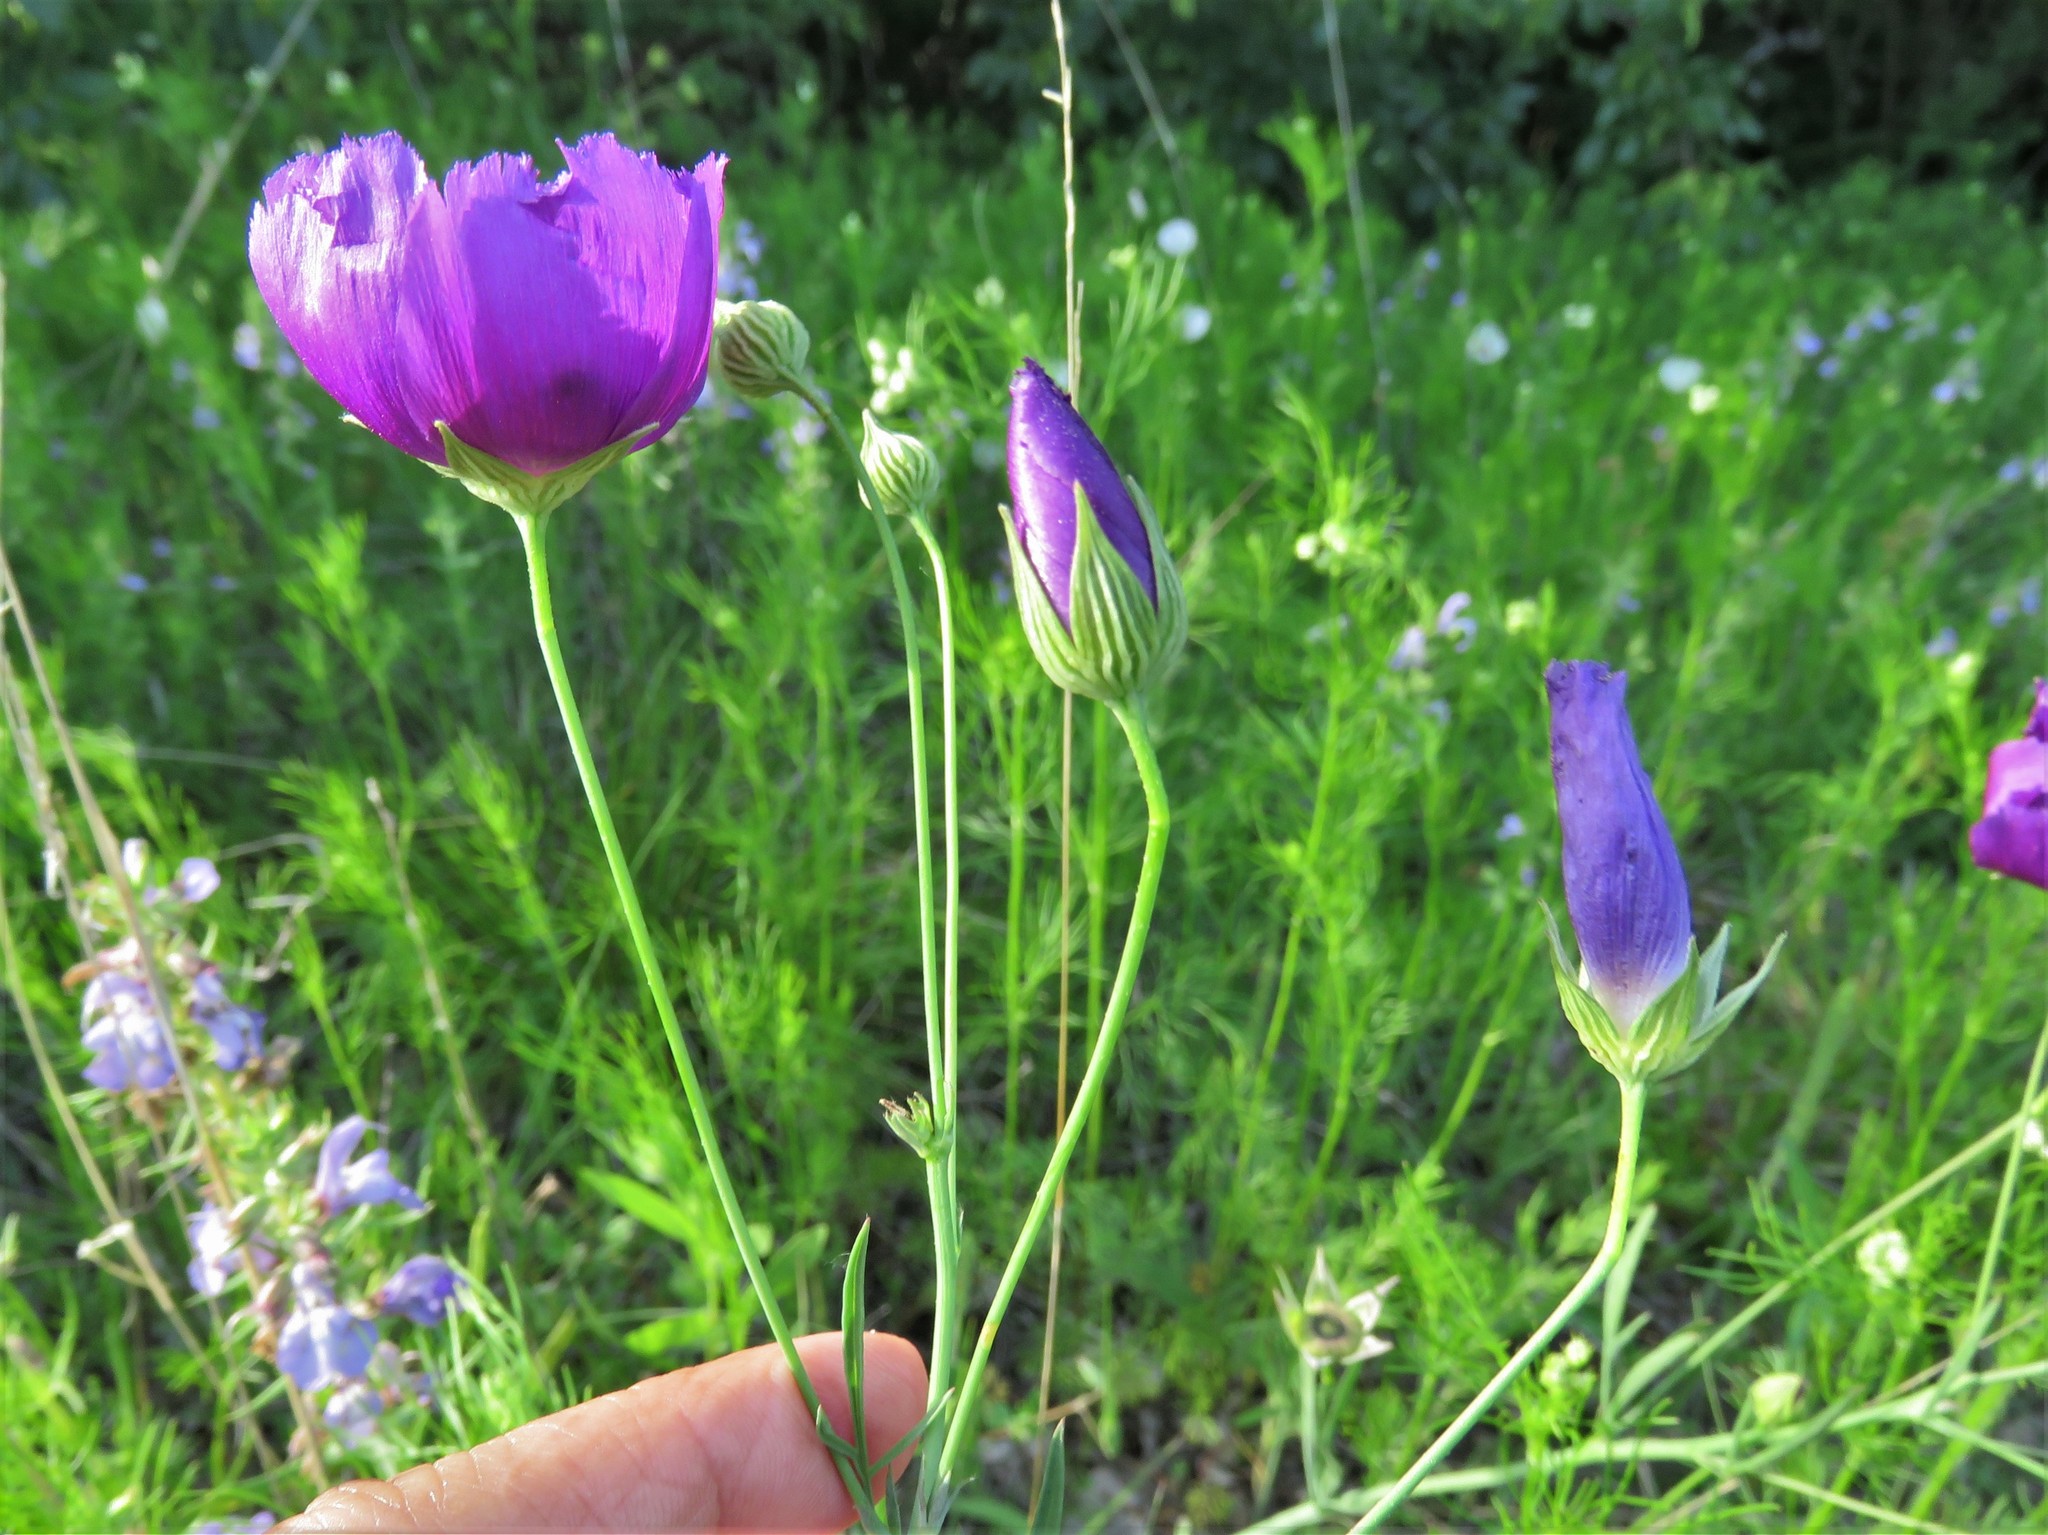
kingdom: Plantae
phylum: Tracheophyta
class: Magnoliopsida
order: Malvales
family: Malvaceae
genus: Callirhoe
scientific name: Callirhoe pedata
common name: Finger poppy-mallow
